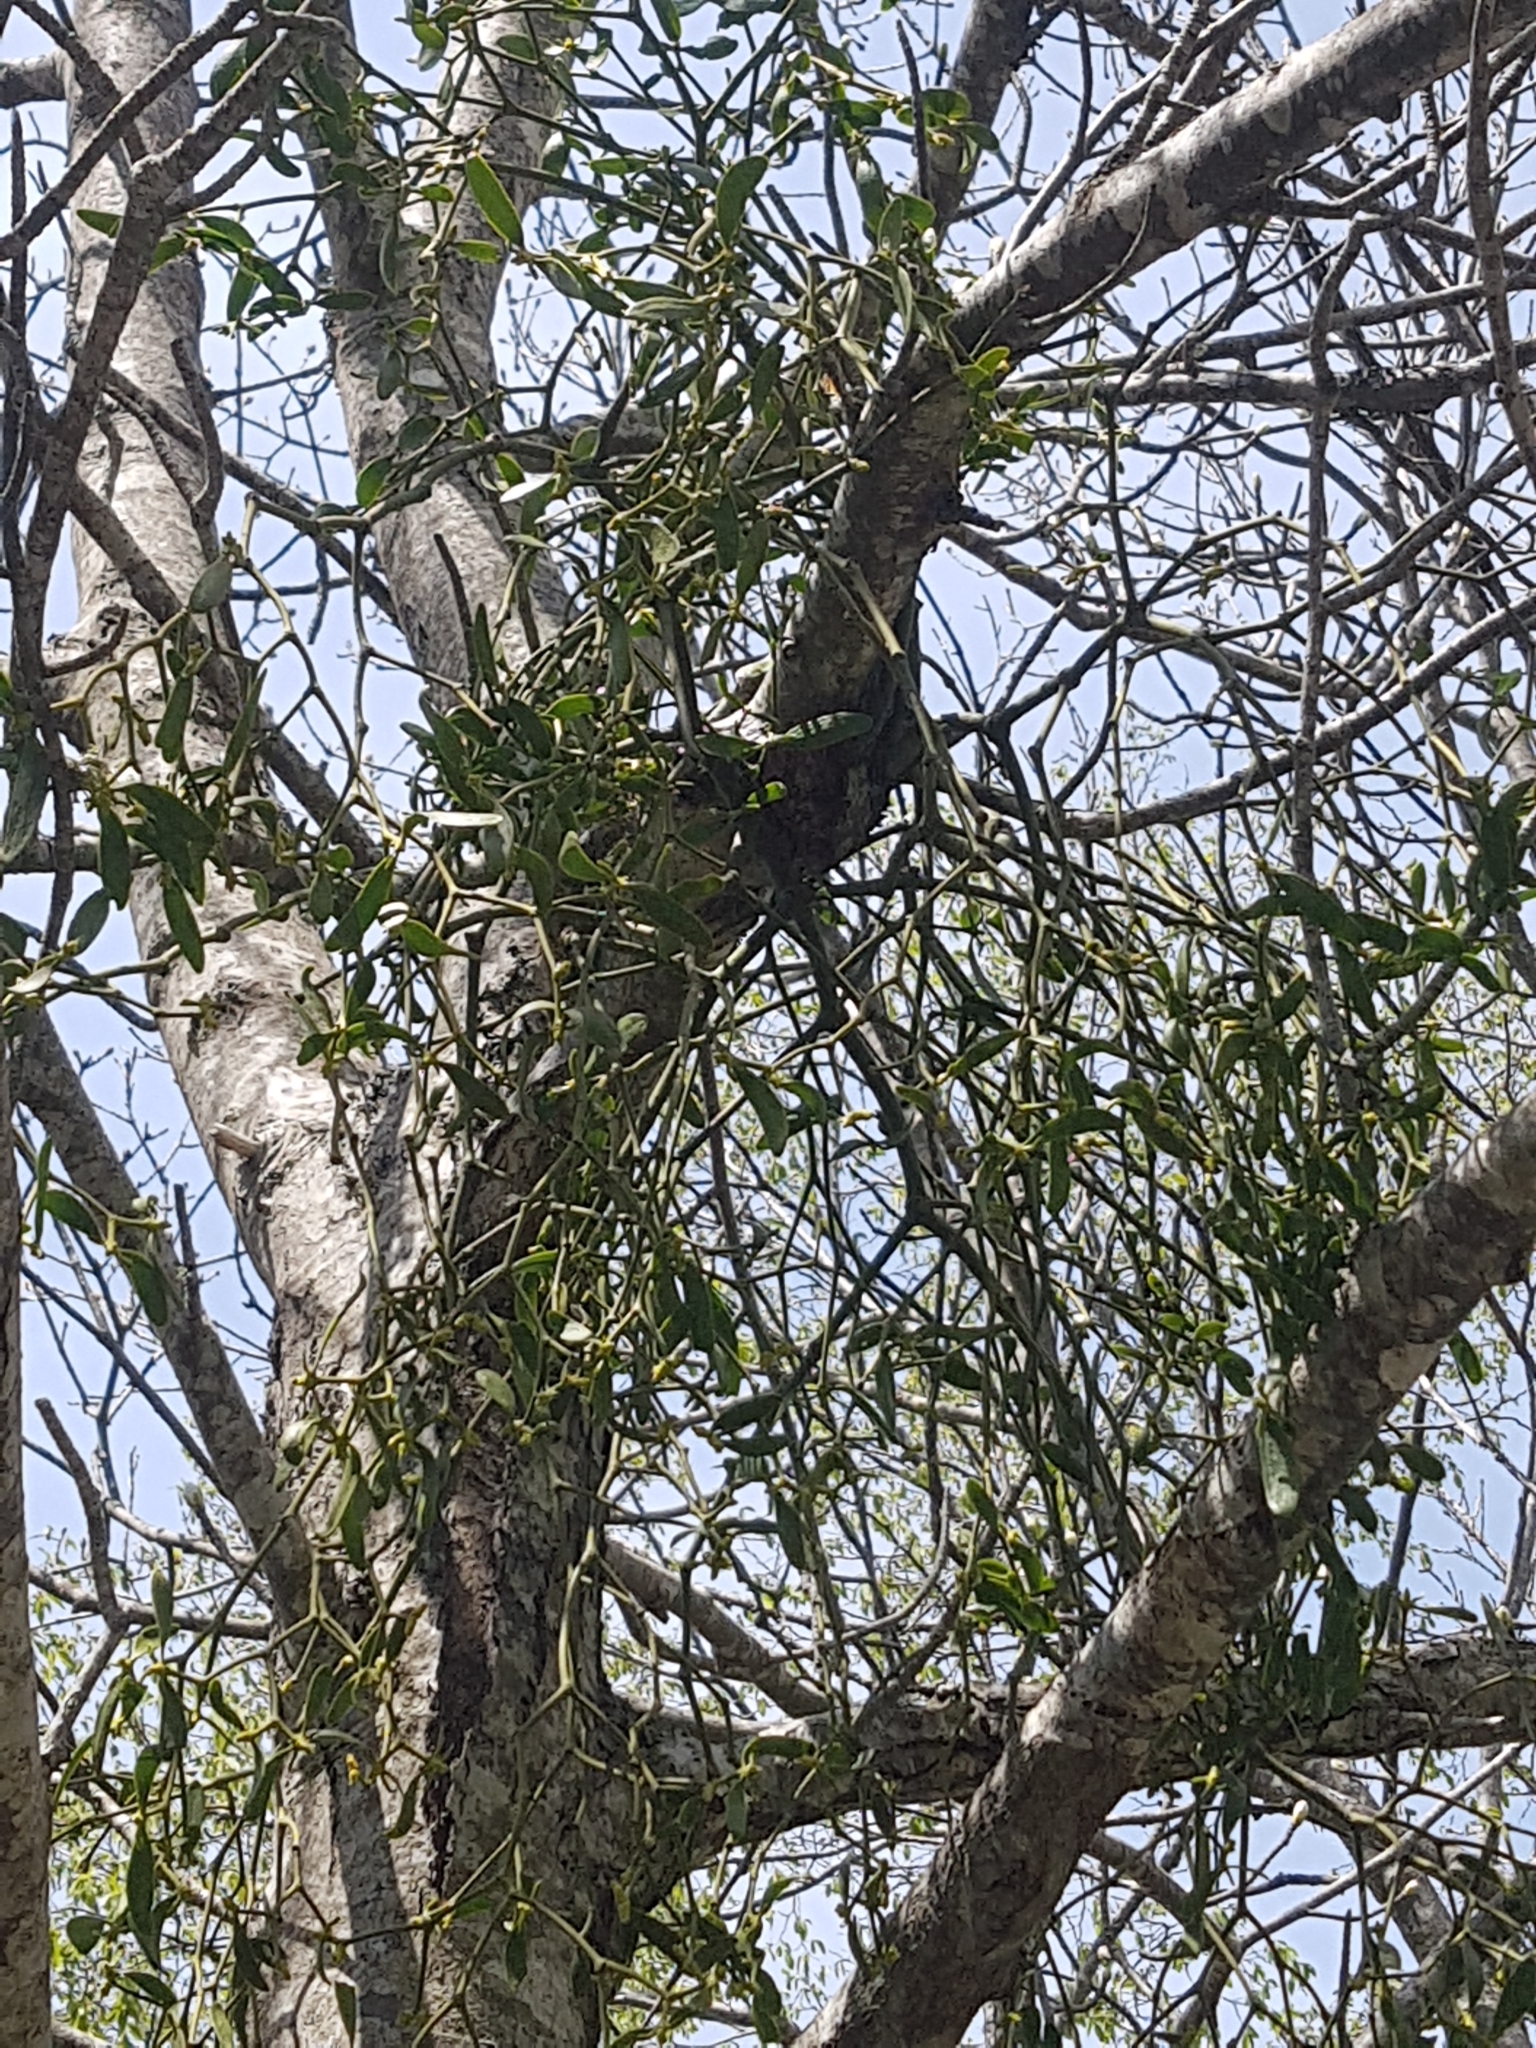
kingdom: Plantae
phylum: Tracheophyta
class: Magnoliopsida
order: Santalales
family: Viscaceae
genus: Viscum
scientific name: Viscum album
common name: Mistletoe
